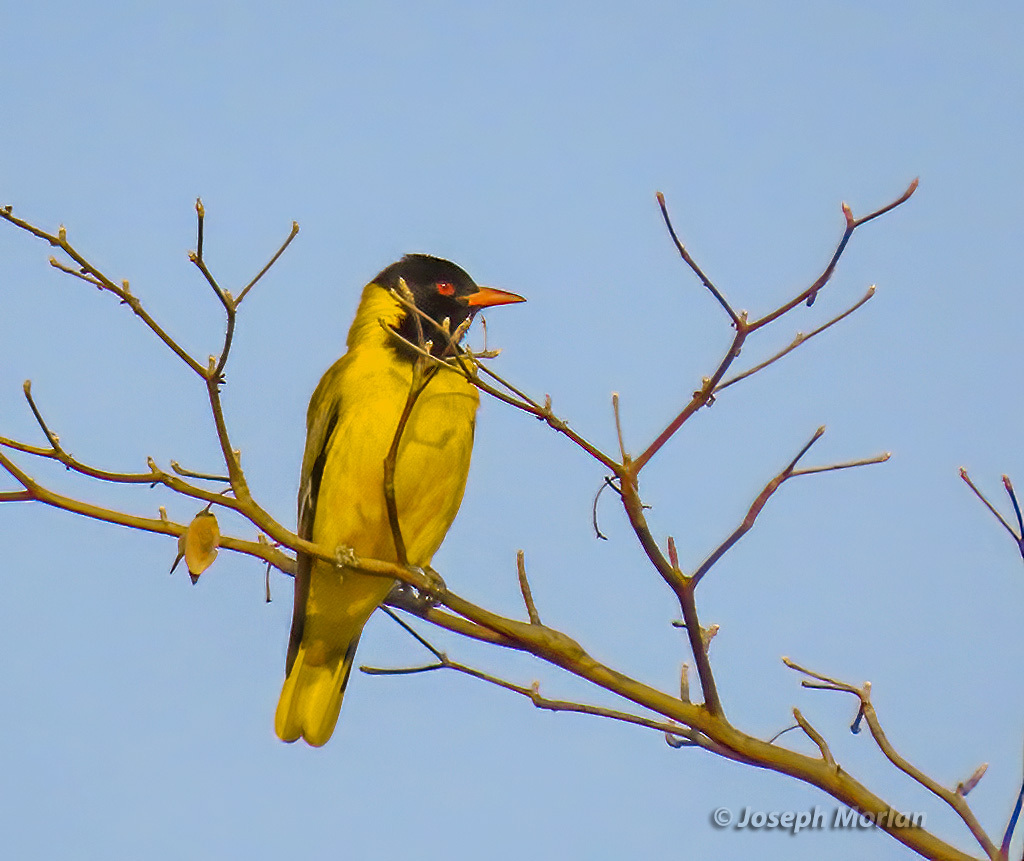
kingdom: Animalia
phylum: Chordata
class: Aves
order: Passeriformes
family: Oriolidae
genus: Oriolus
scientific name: Oriolus larvatus
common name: Black-headed oriole
